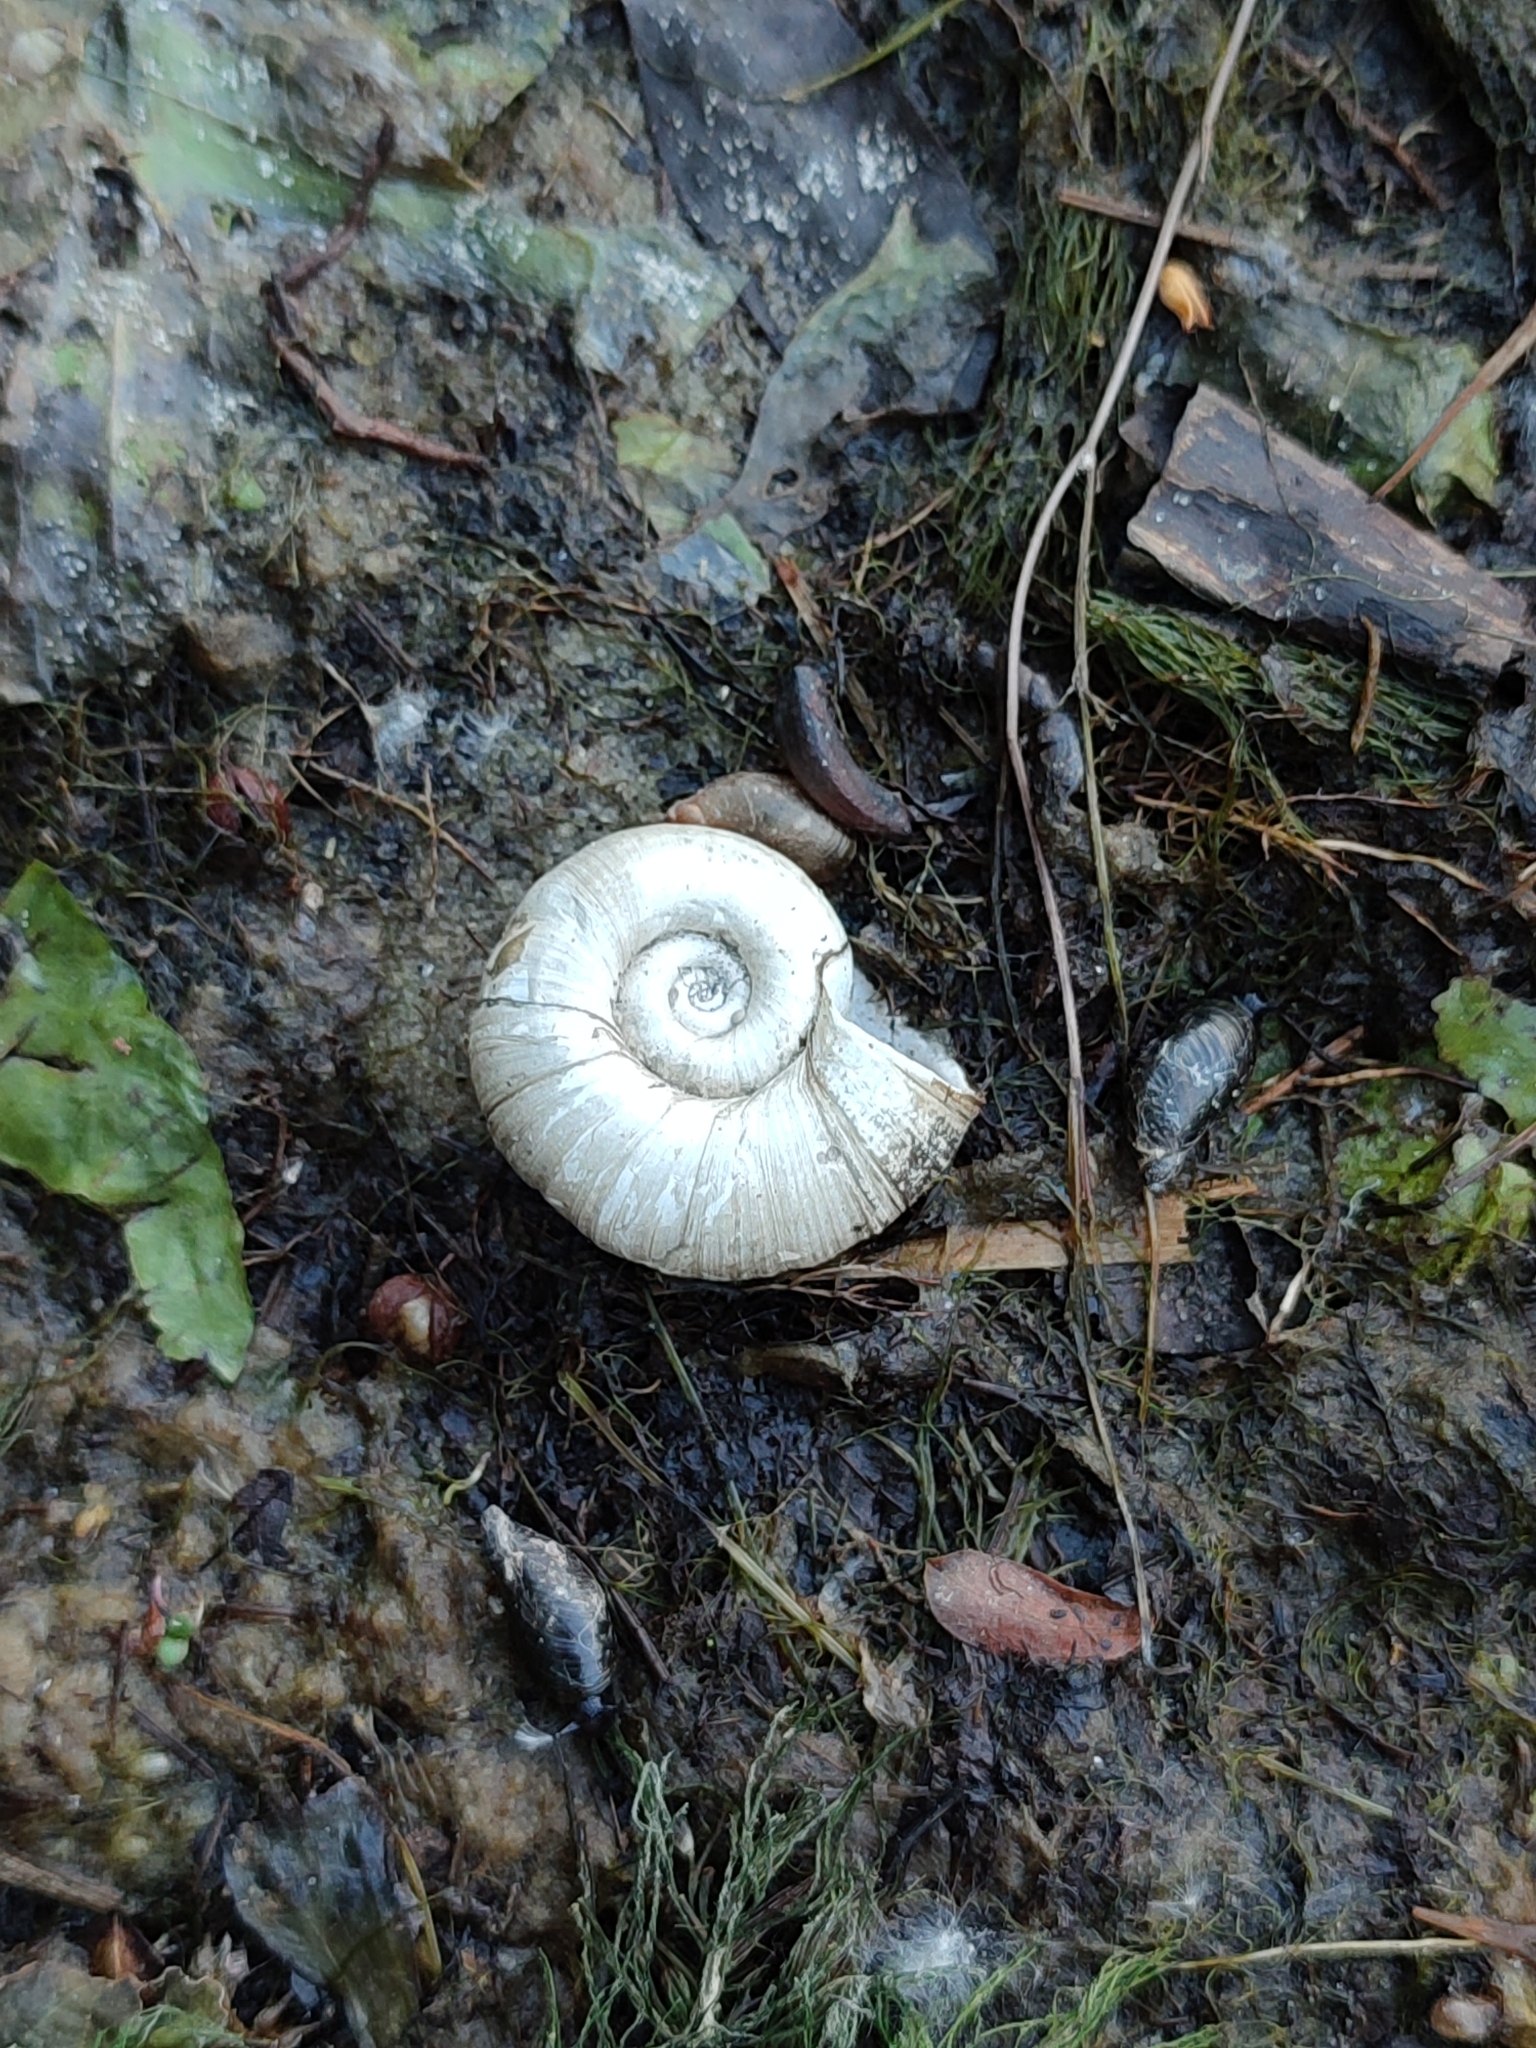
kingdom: Animalia
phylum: Mollusca
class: Gastropoda
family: Planorbidae
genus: Planorbarius
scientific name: Planorbarius corneus
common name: Great ramshorn
